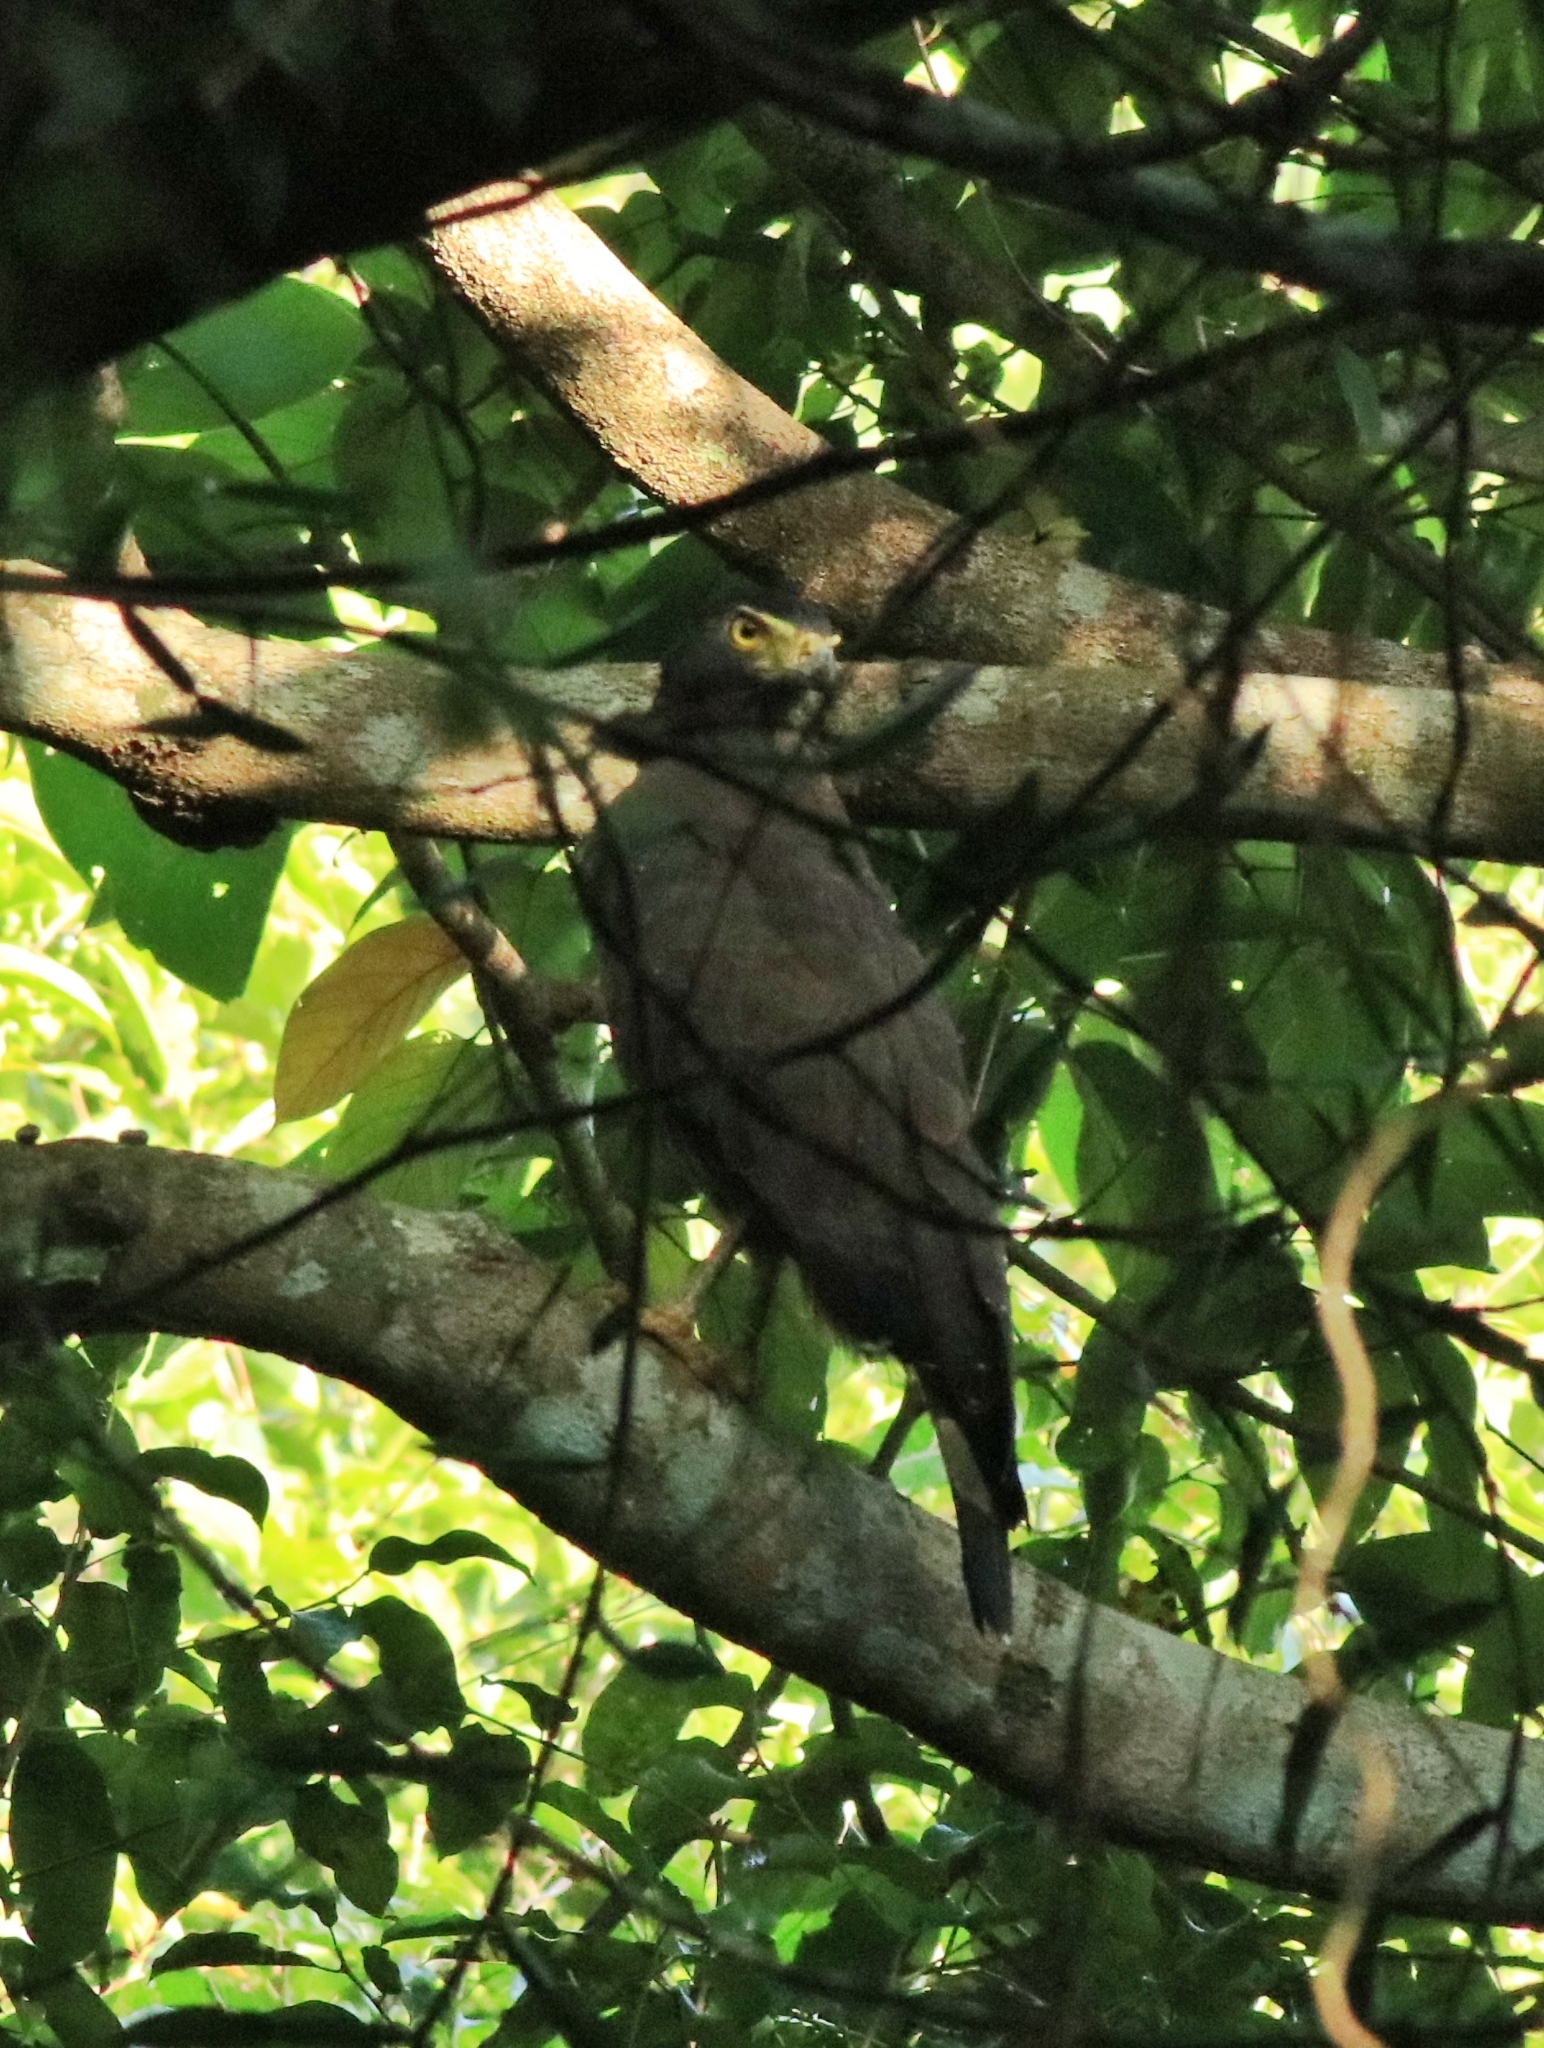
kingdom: Animalia
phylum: Chordata
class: Aves
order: Accipitriformes
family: Accipitridae
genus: Spilornis
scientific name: Spilornis cheela
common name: Crested serpent eagle
